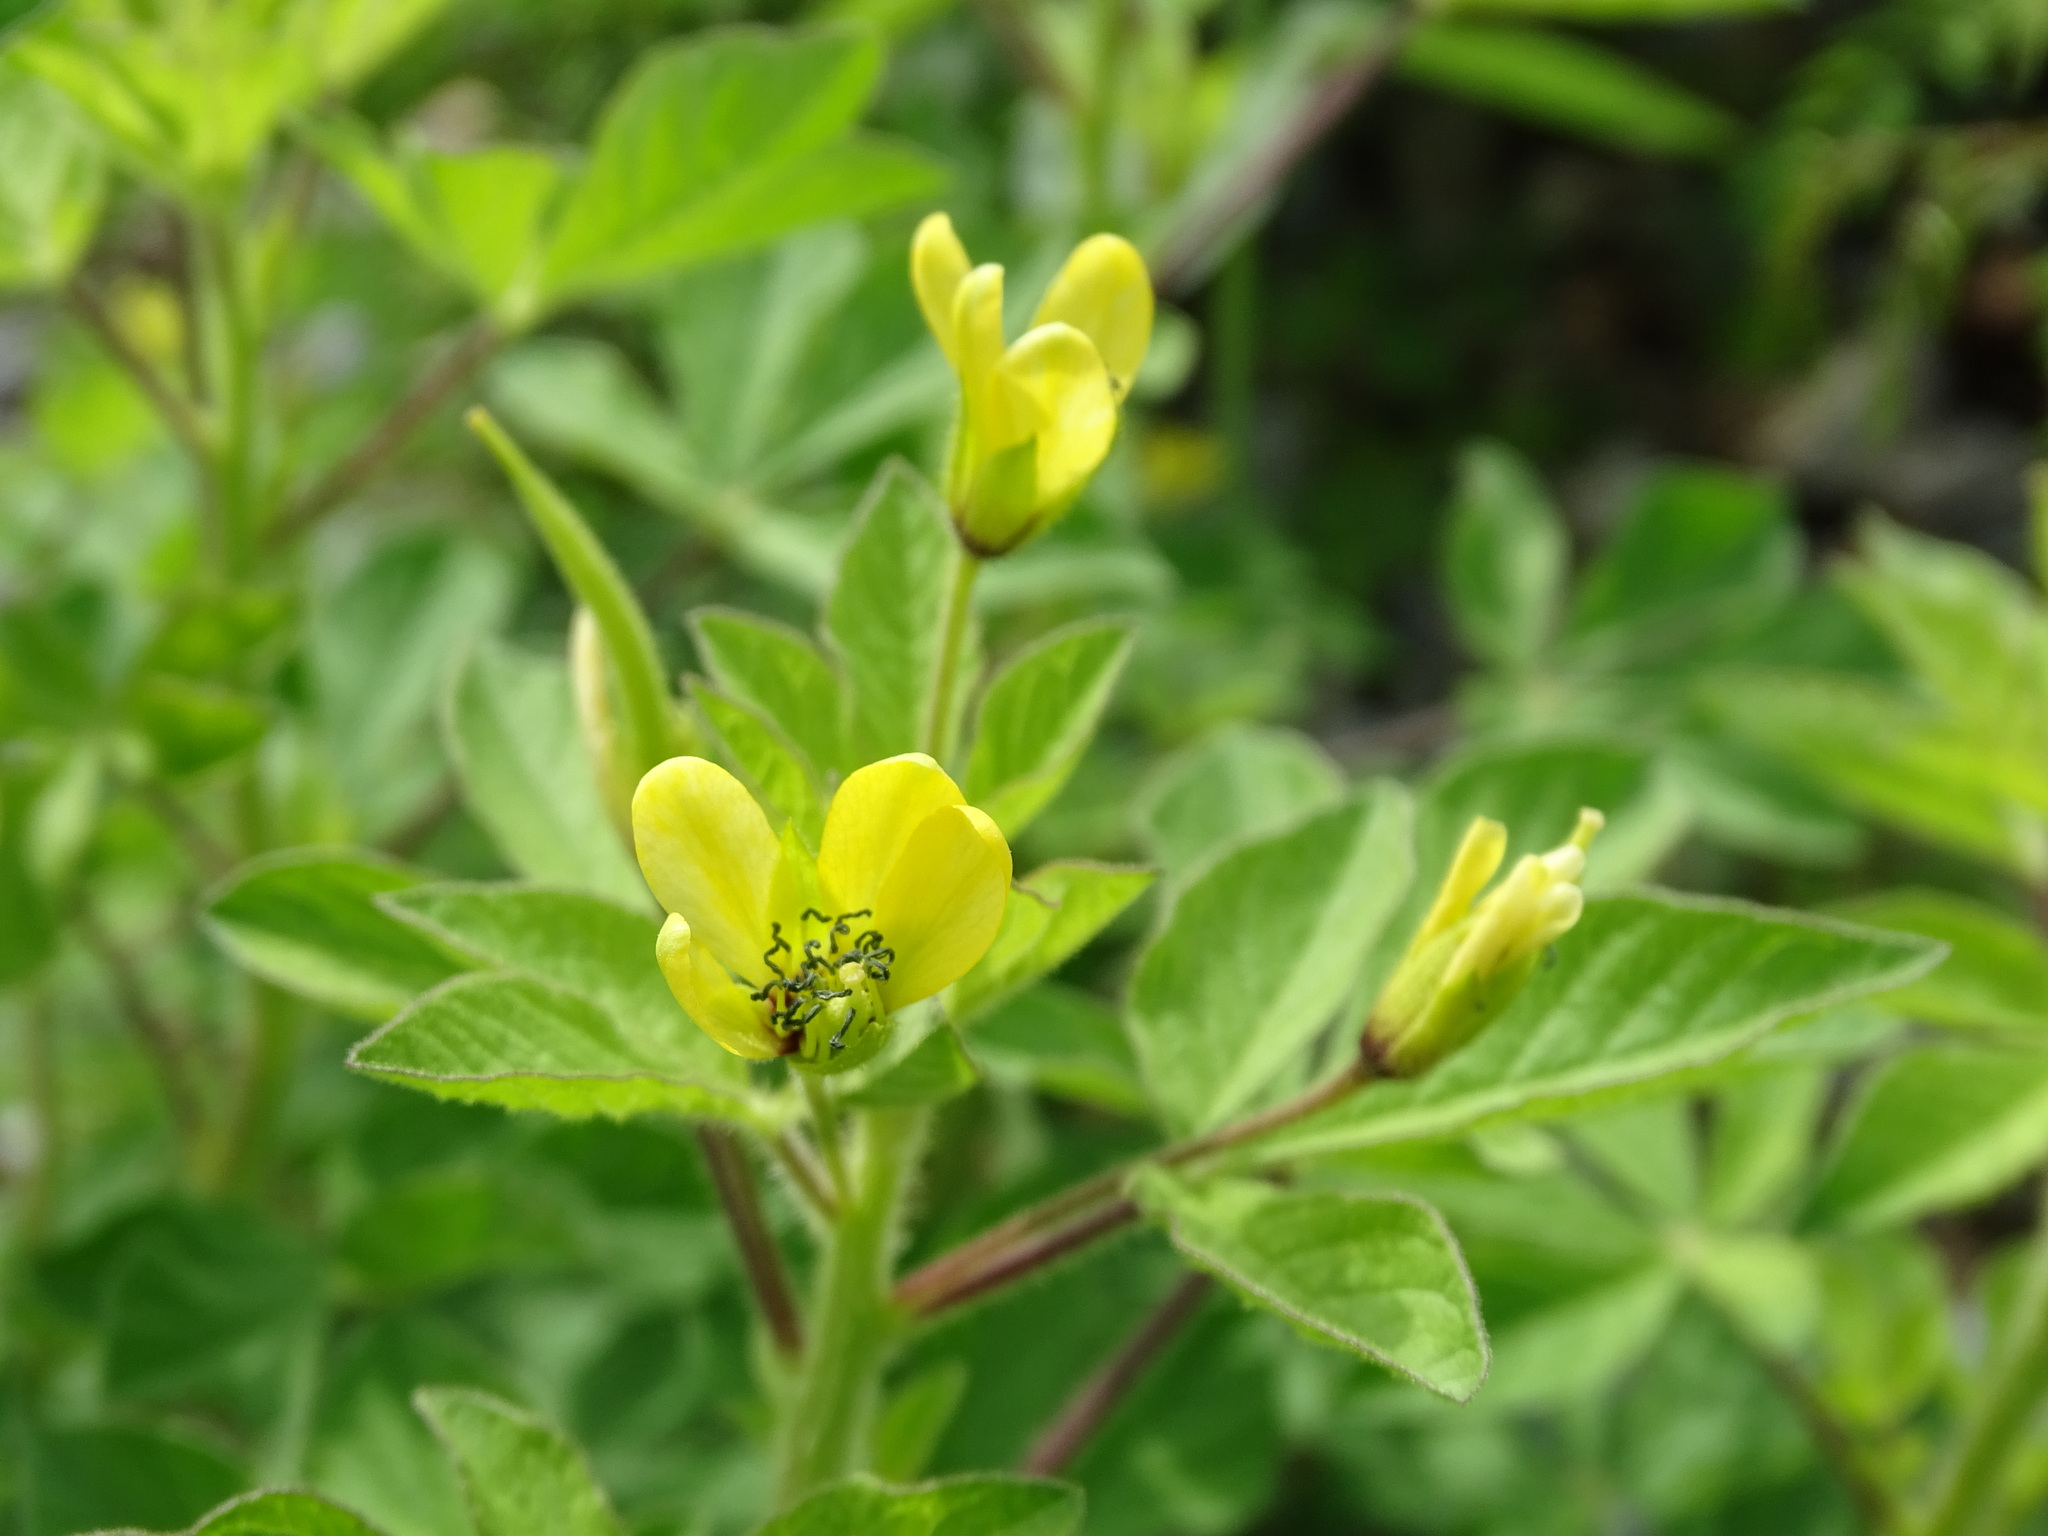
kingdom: Plantae
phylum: Tracheophyta
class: Magnoliopsida
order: Brassicales
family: Cleomaceae
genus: Arivela
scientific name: Arivela viscosa
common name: Asian spiderflower
